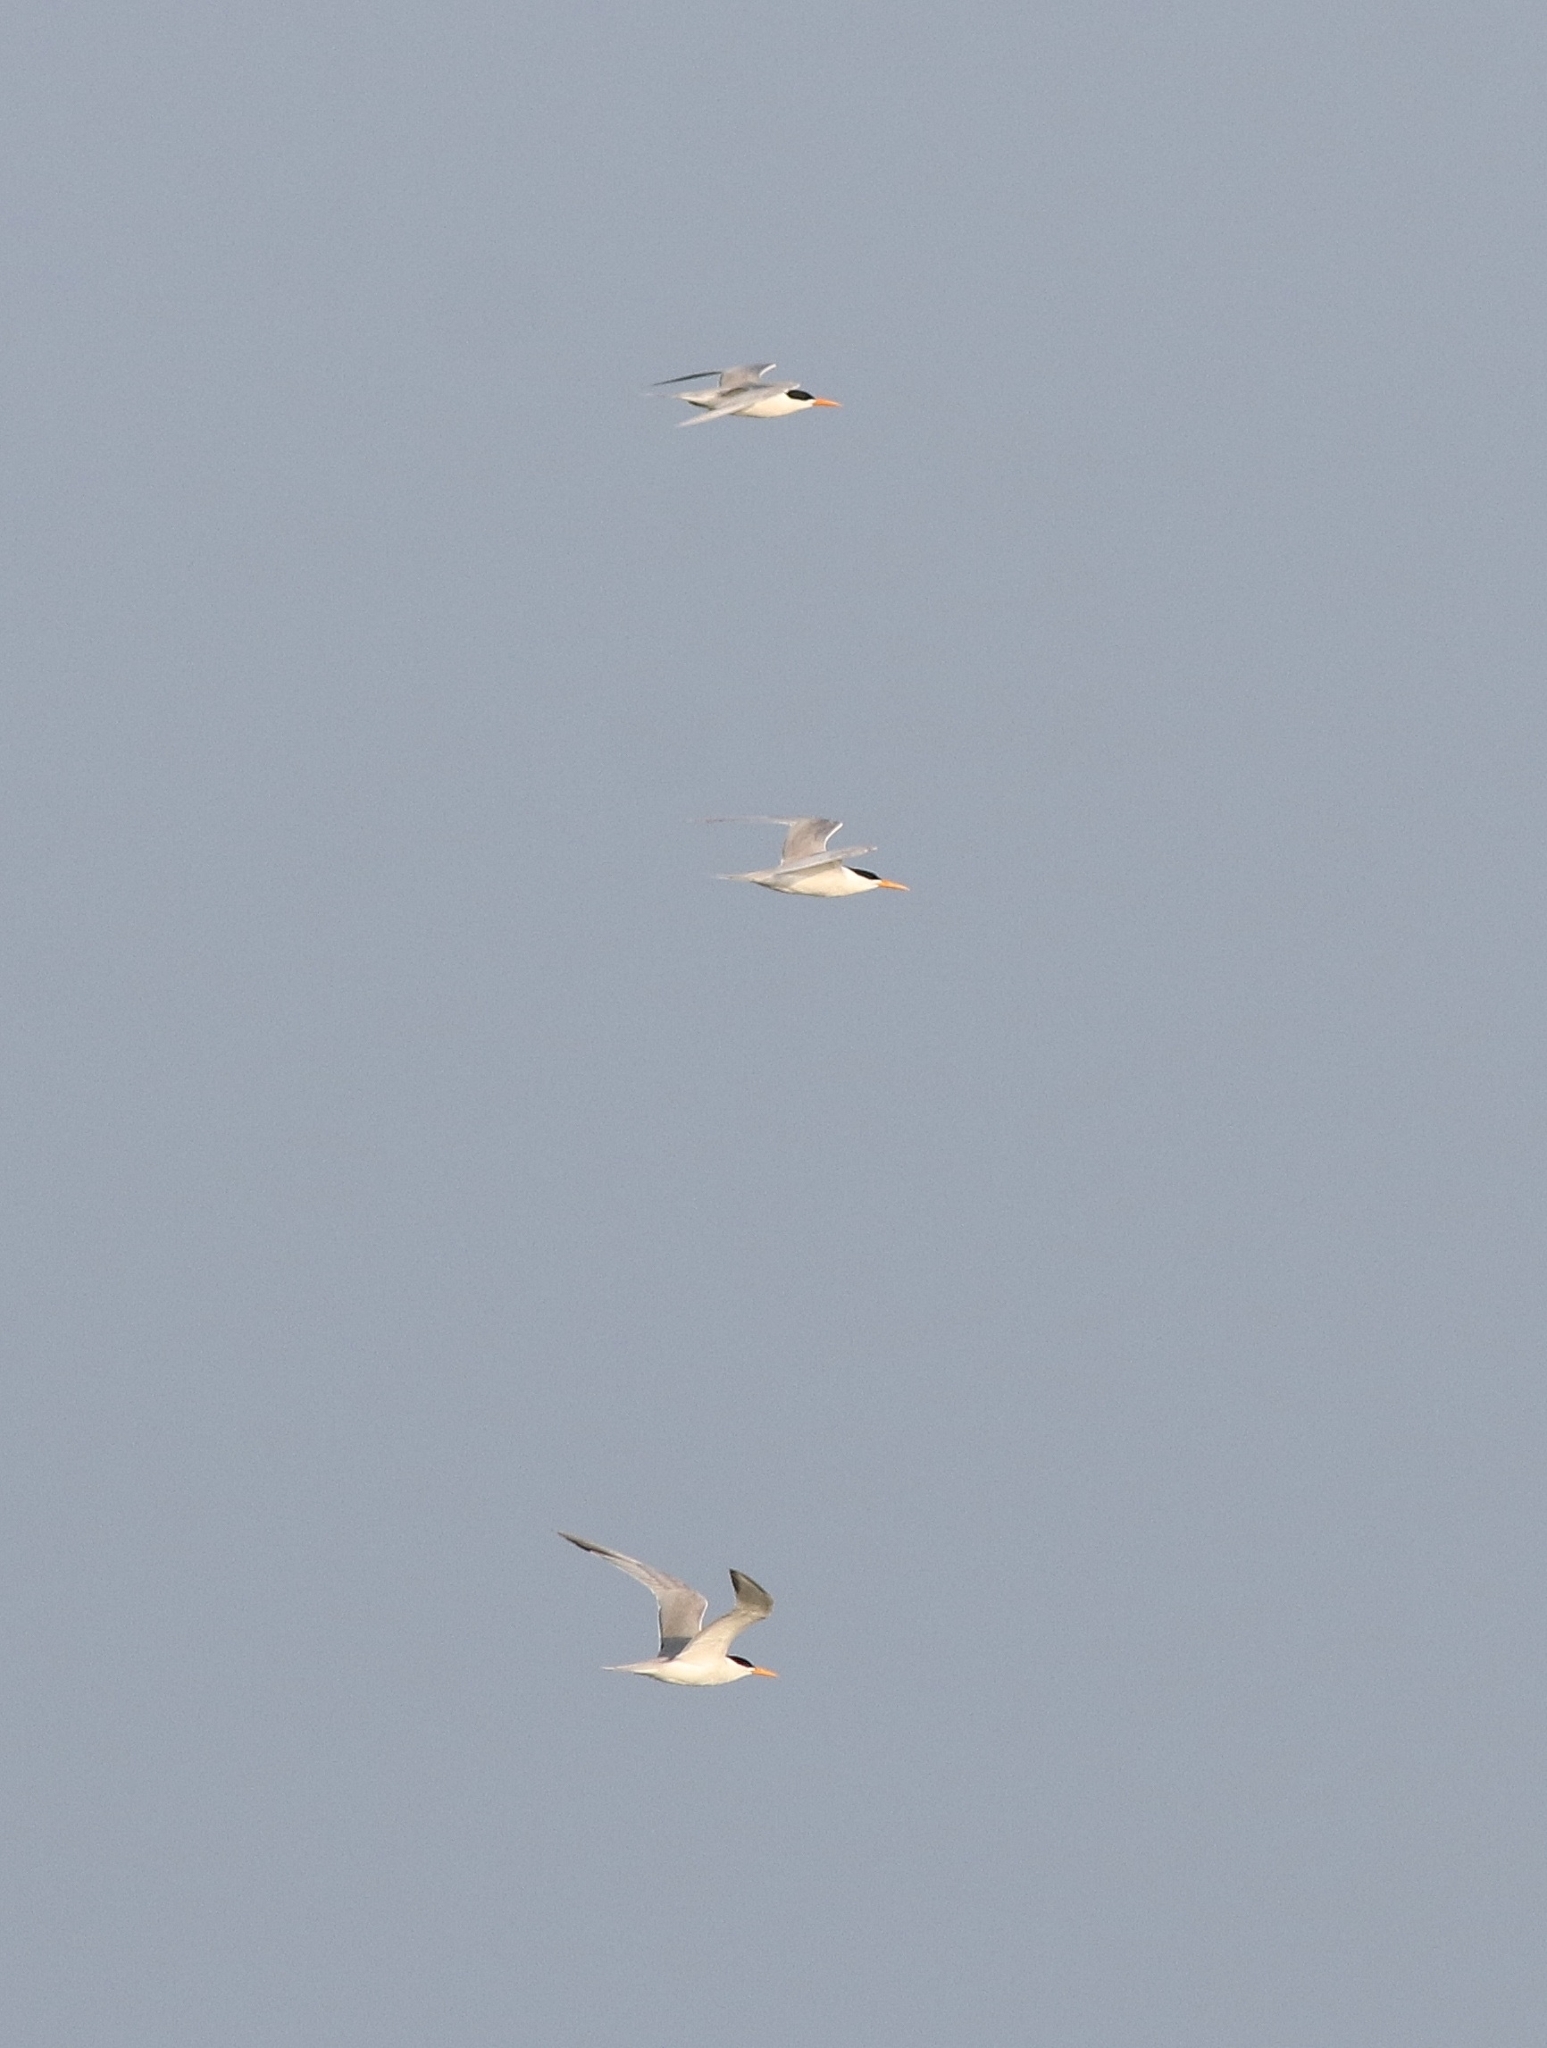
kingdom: Animalia
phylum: Chordata
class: Aves
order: Charadriiformes
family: Laridae
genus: Thalasseus
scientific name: Thalasseus bengalensis
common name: Lesser crested tern
